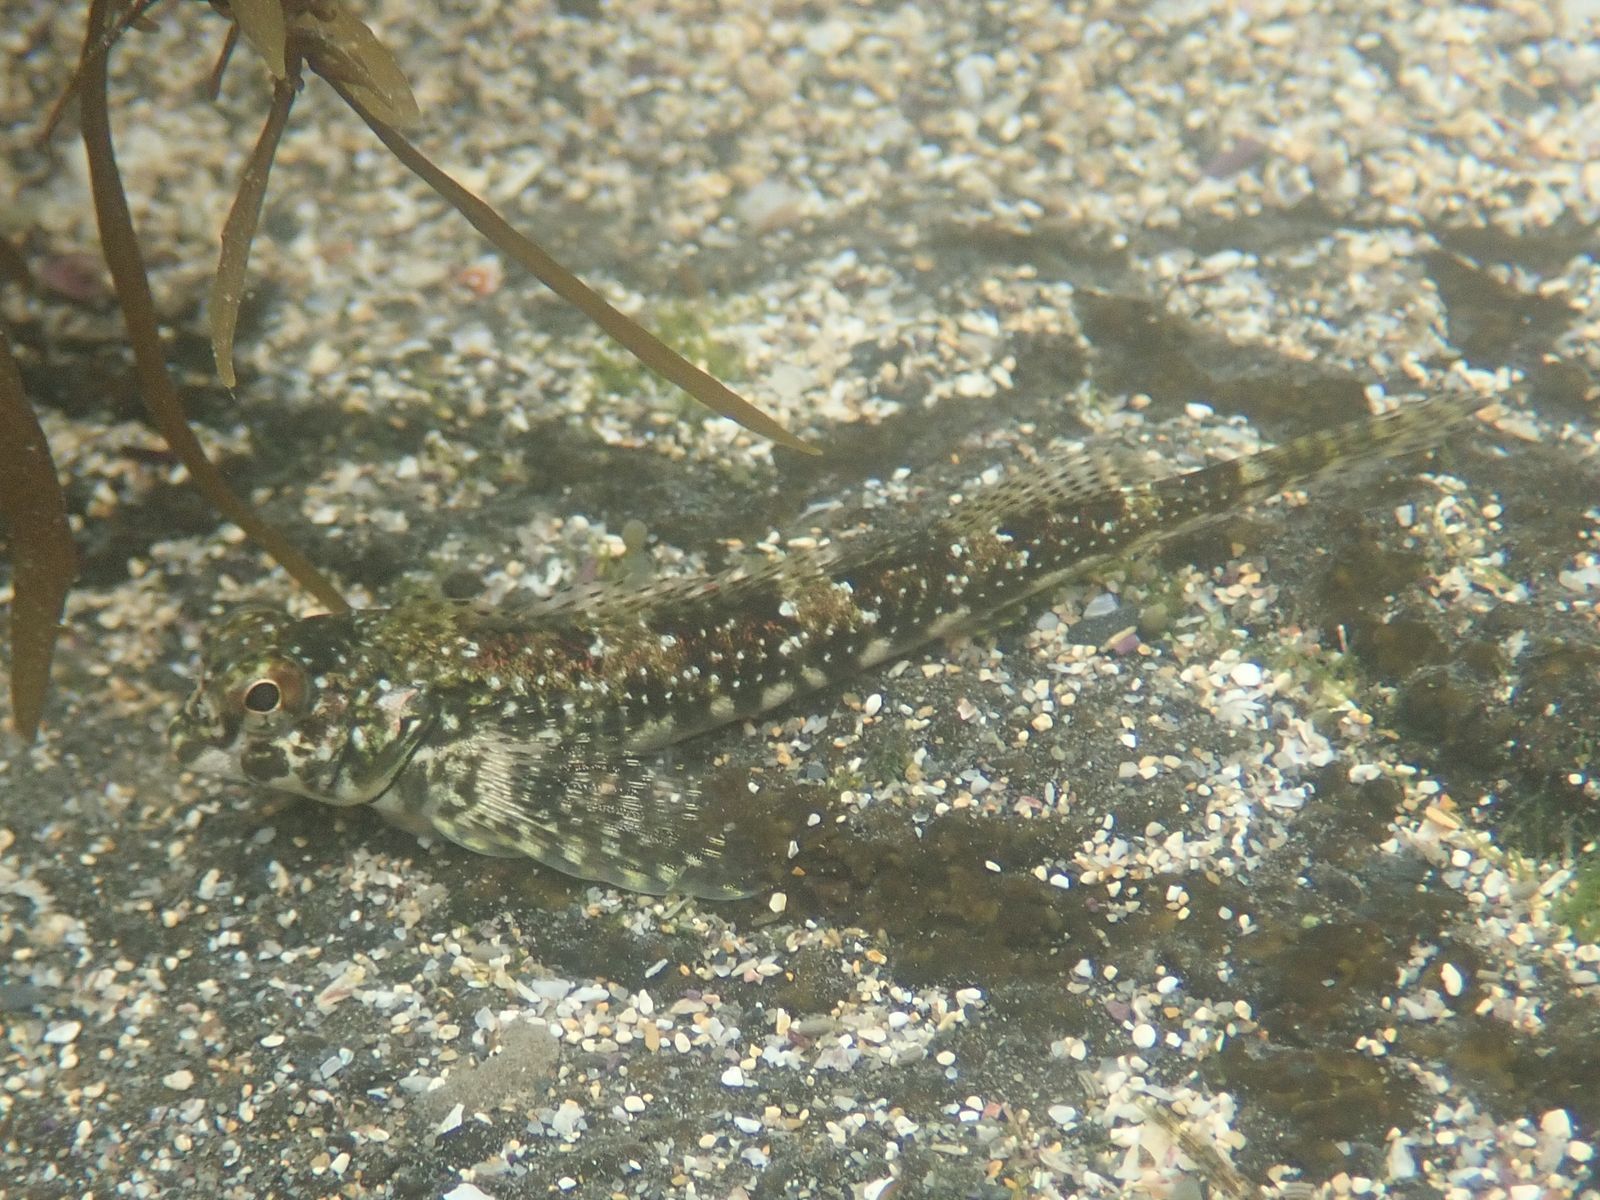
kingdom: Animalia
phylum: Chordata
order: Perciformes
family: Tripterygiidae
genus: Lepidoblennius
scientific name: Lepidoblennius haplodactylus
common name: Eastern jumping blenny
